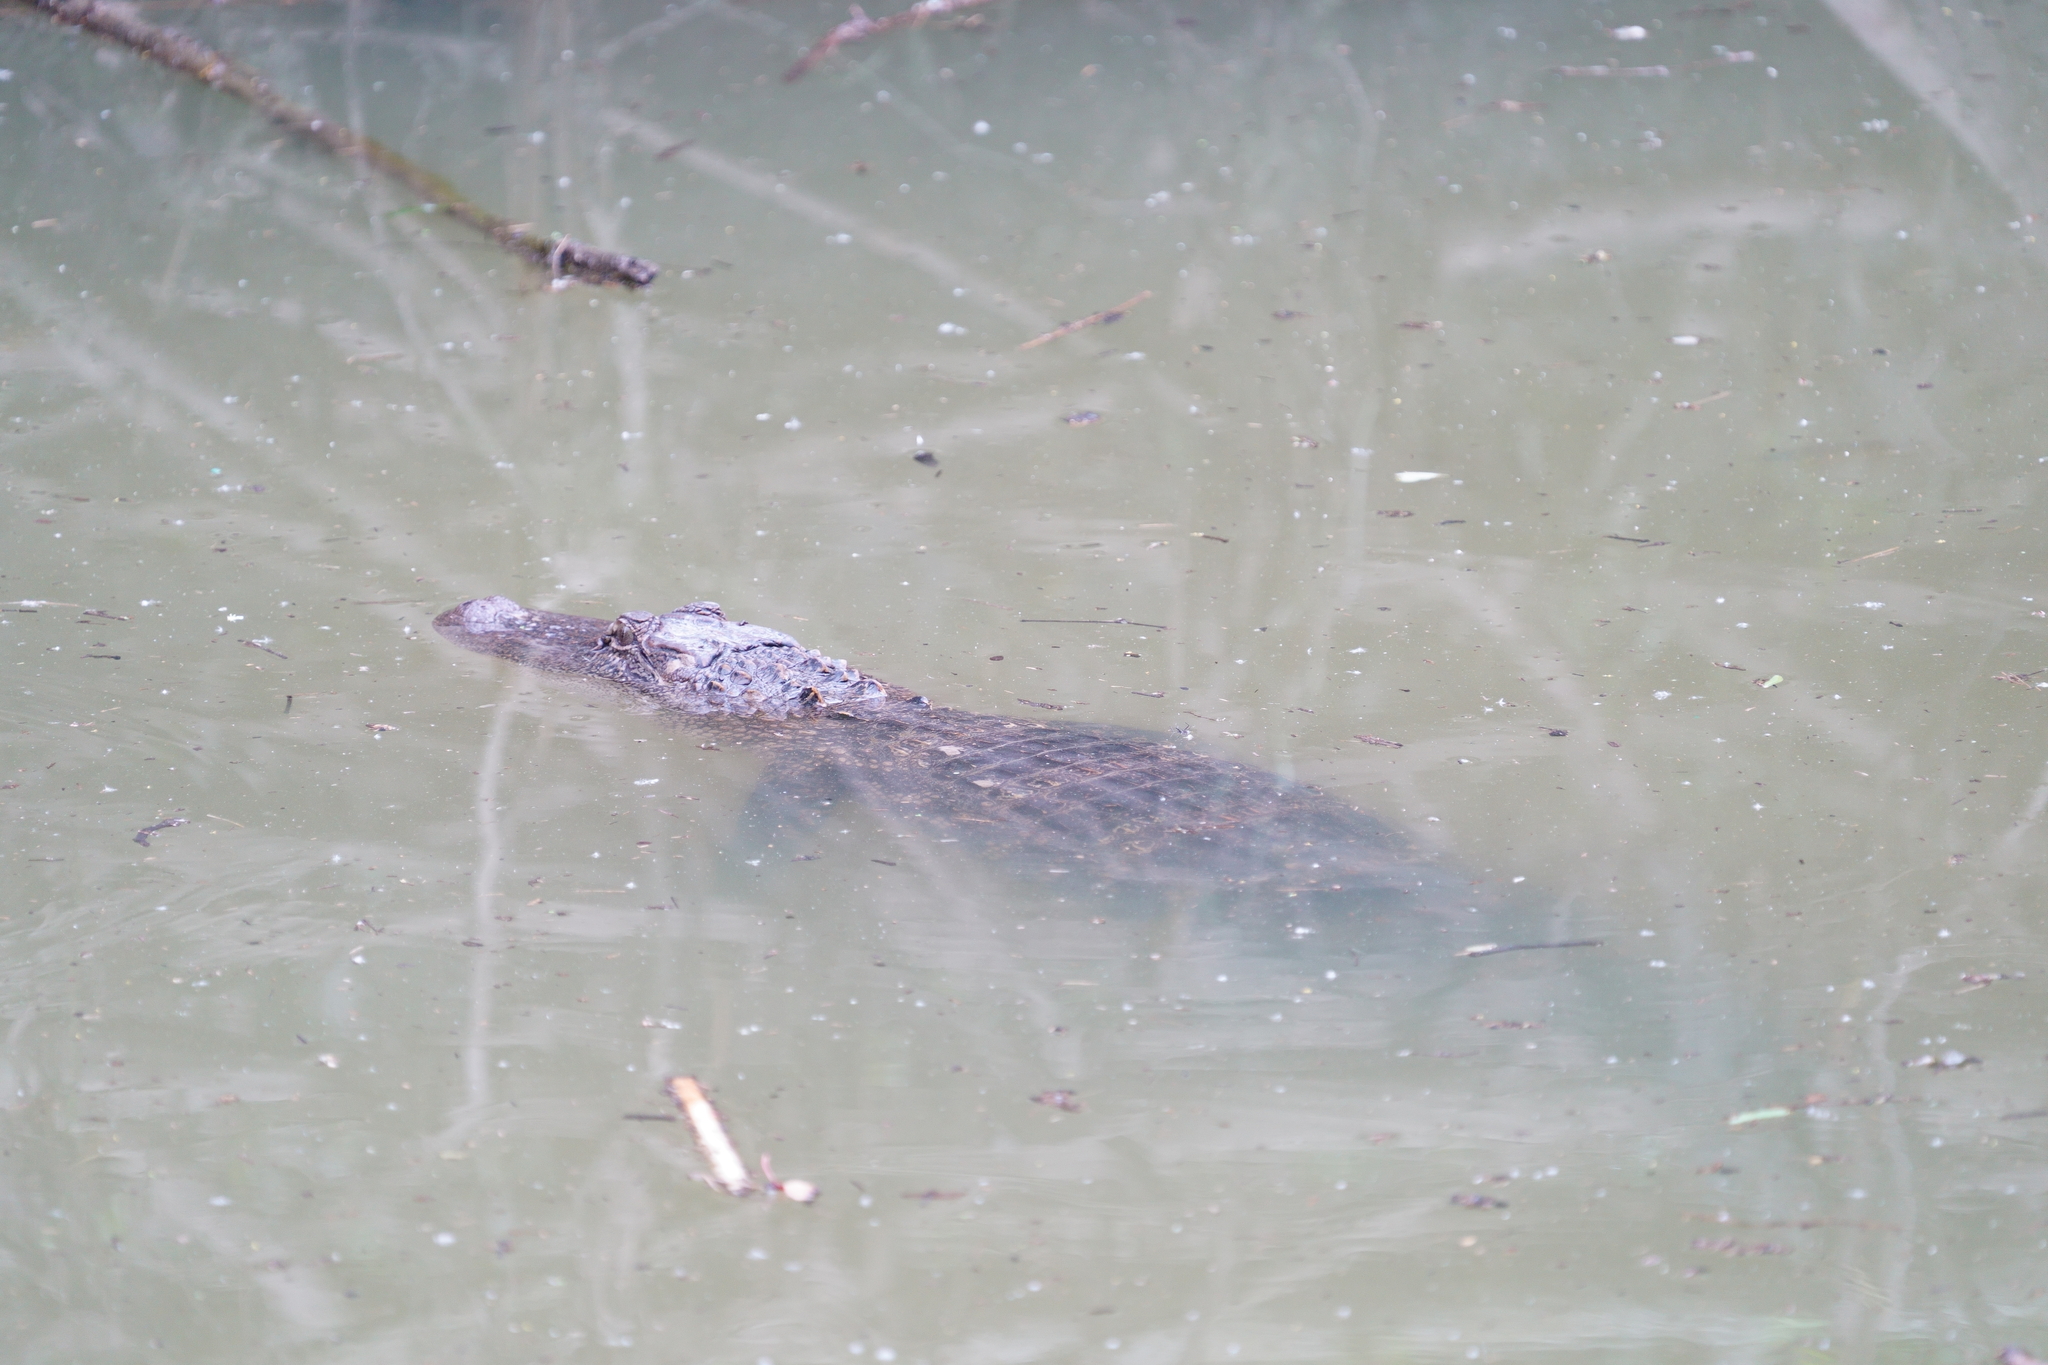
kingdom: Animalia
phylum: Chordata
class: Crocodylia
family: Alligatoridae
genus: Alligator
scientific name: Alligator mississippiensis
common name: American alligator
